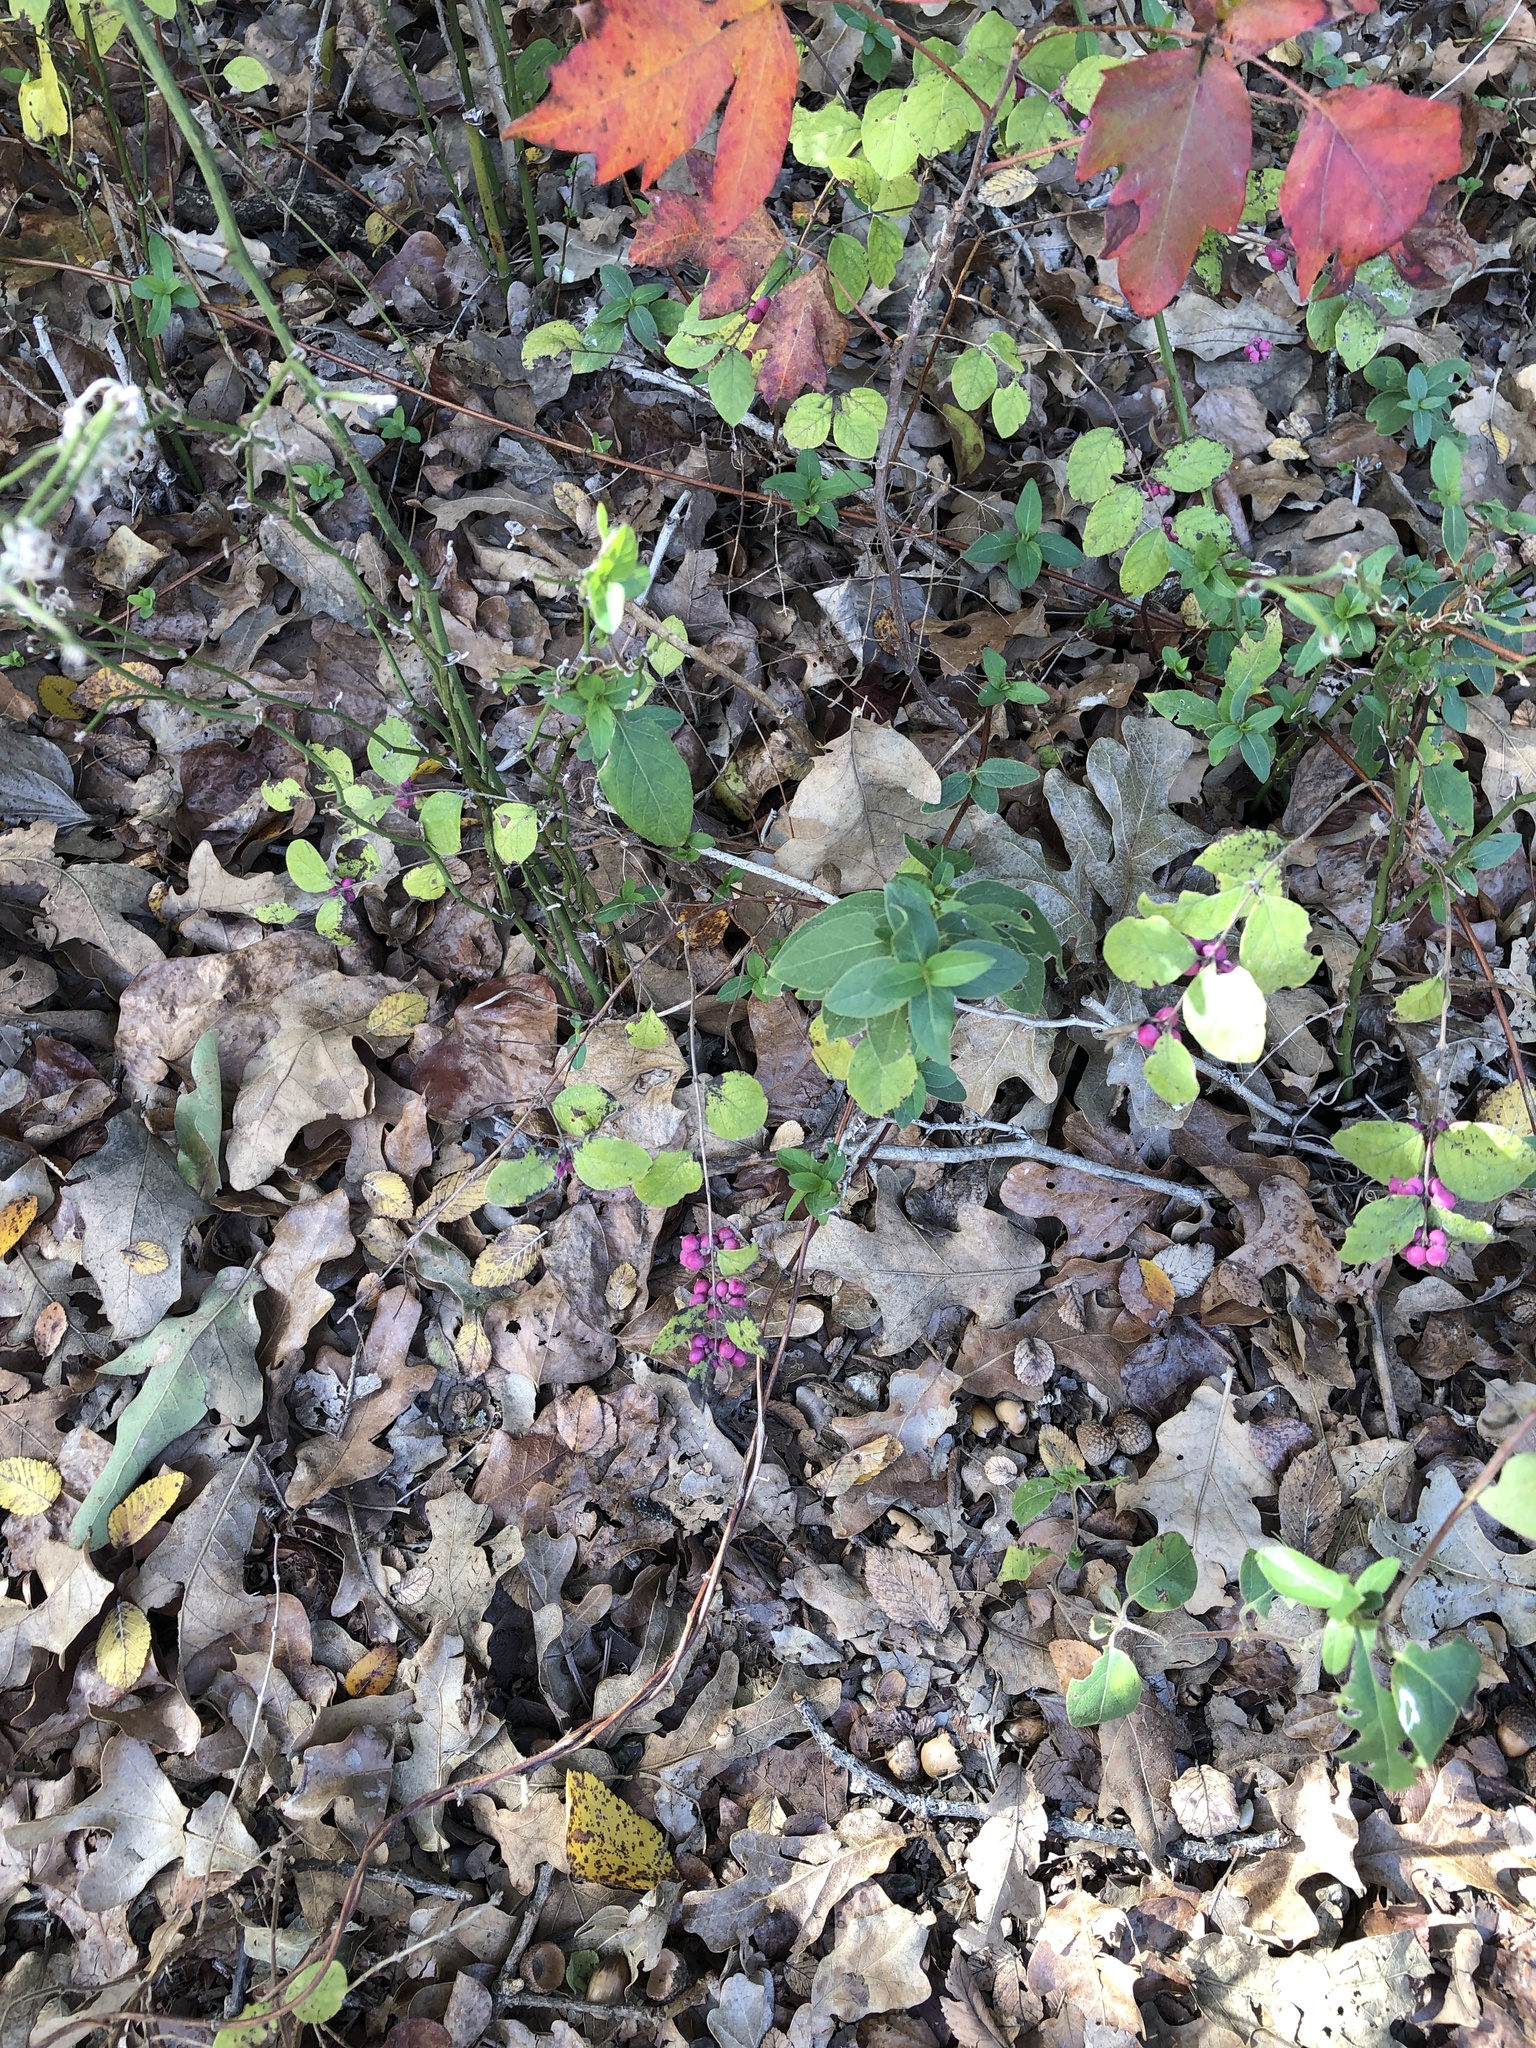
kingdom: Plantae
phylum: Tracheophyta
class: Magnoliopsida
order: Dipsacales
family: Caprifoliaceae
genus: Symphoricarpos
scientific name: Symphoricarpos orbiculatus
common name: Coralberry
